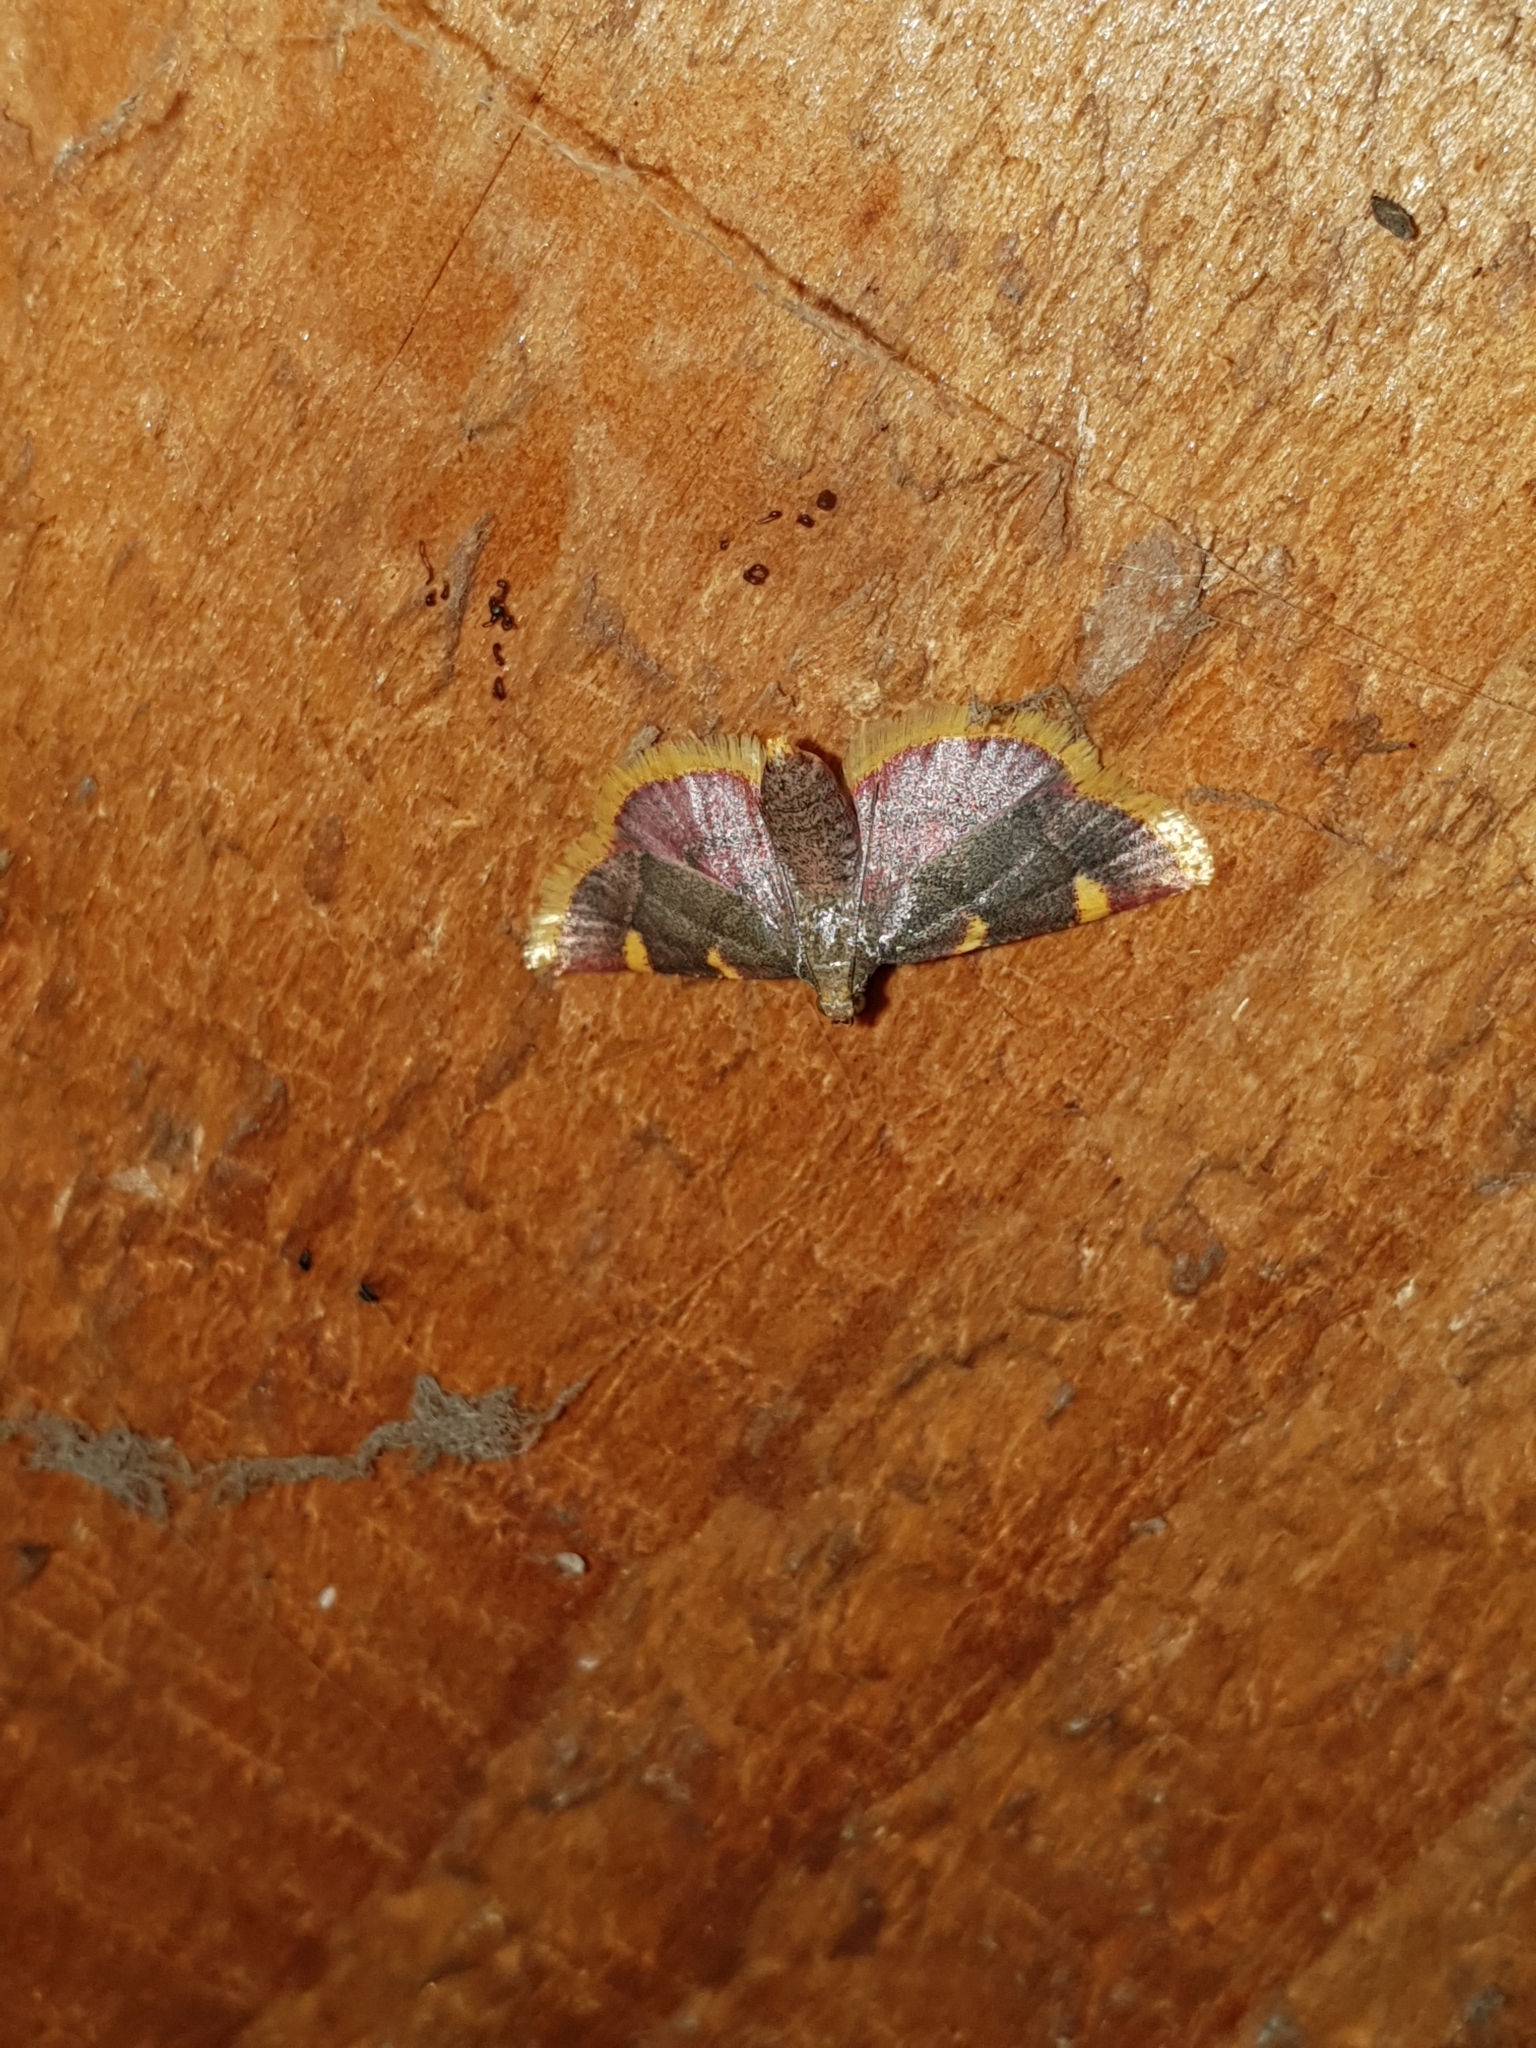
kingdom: Animalia
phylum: Arthropoda
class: Insecta
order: Lepidoptera
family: Pyralidae
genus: Hypsopygia
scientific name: Hypsopygia costalis
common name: Gold triangle
